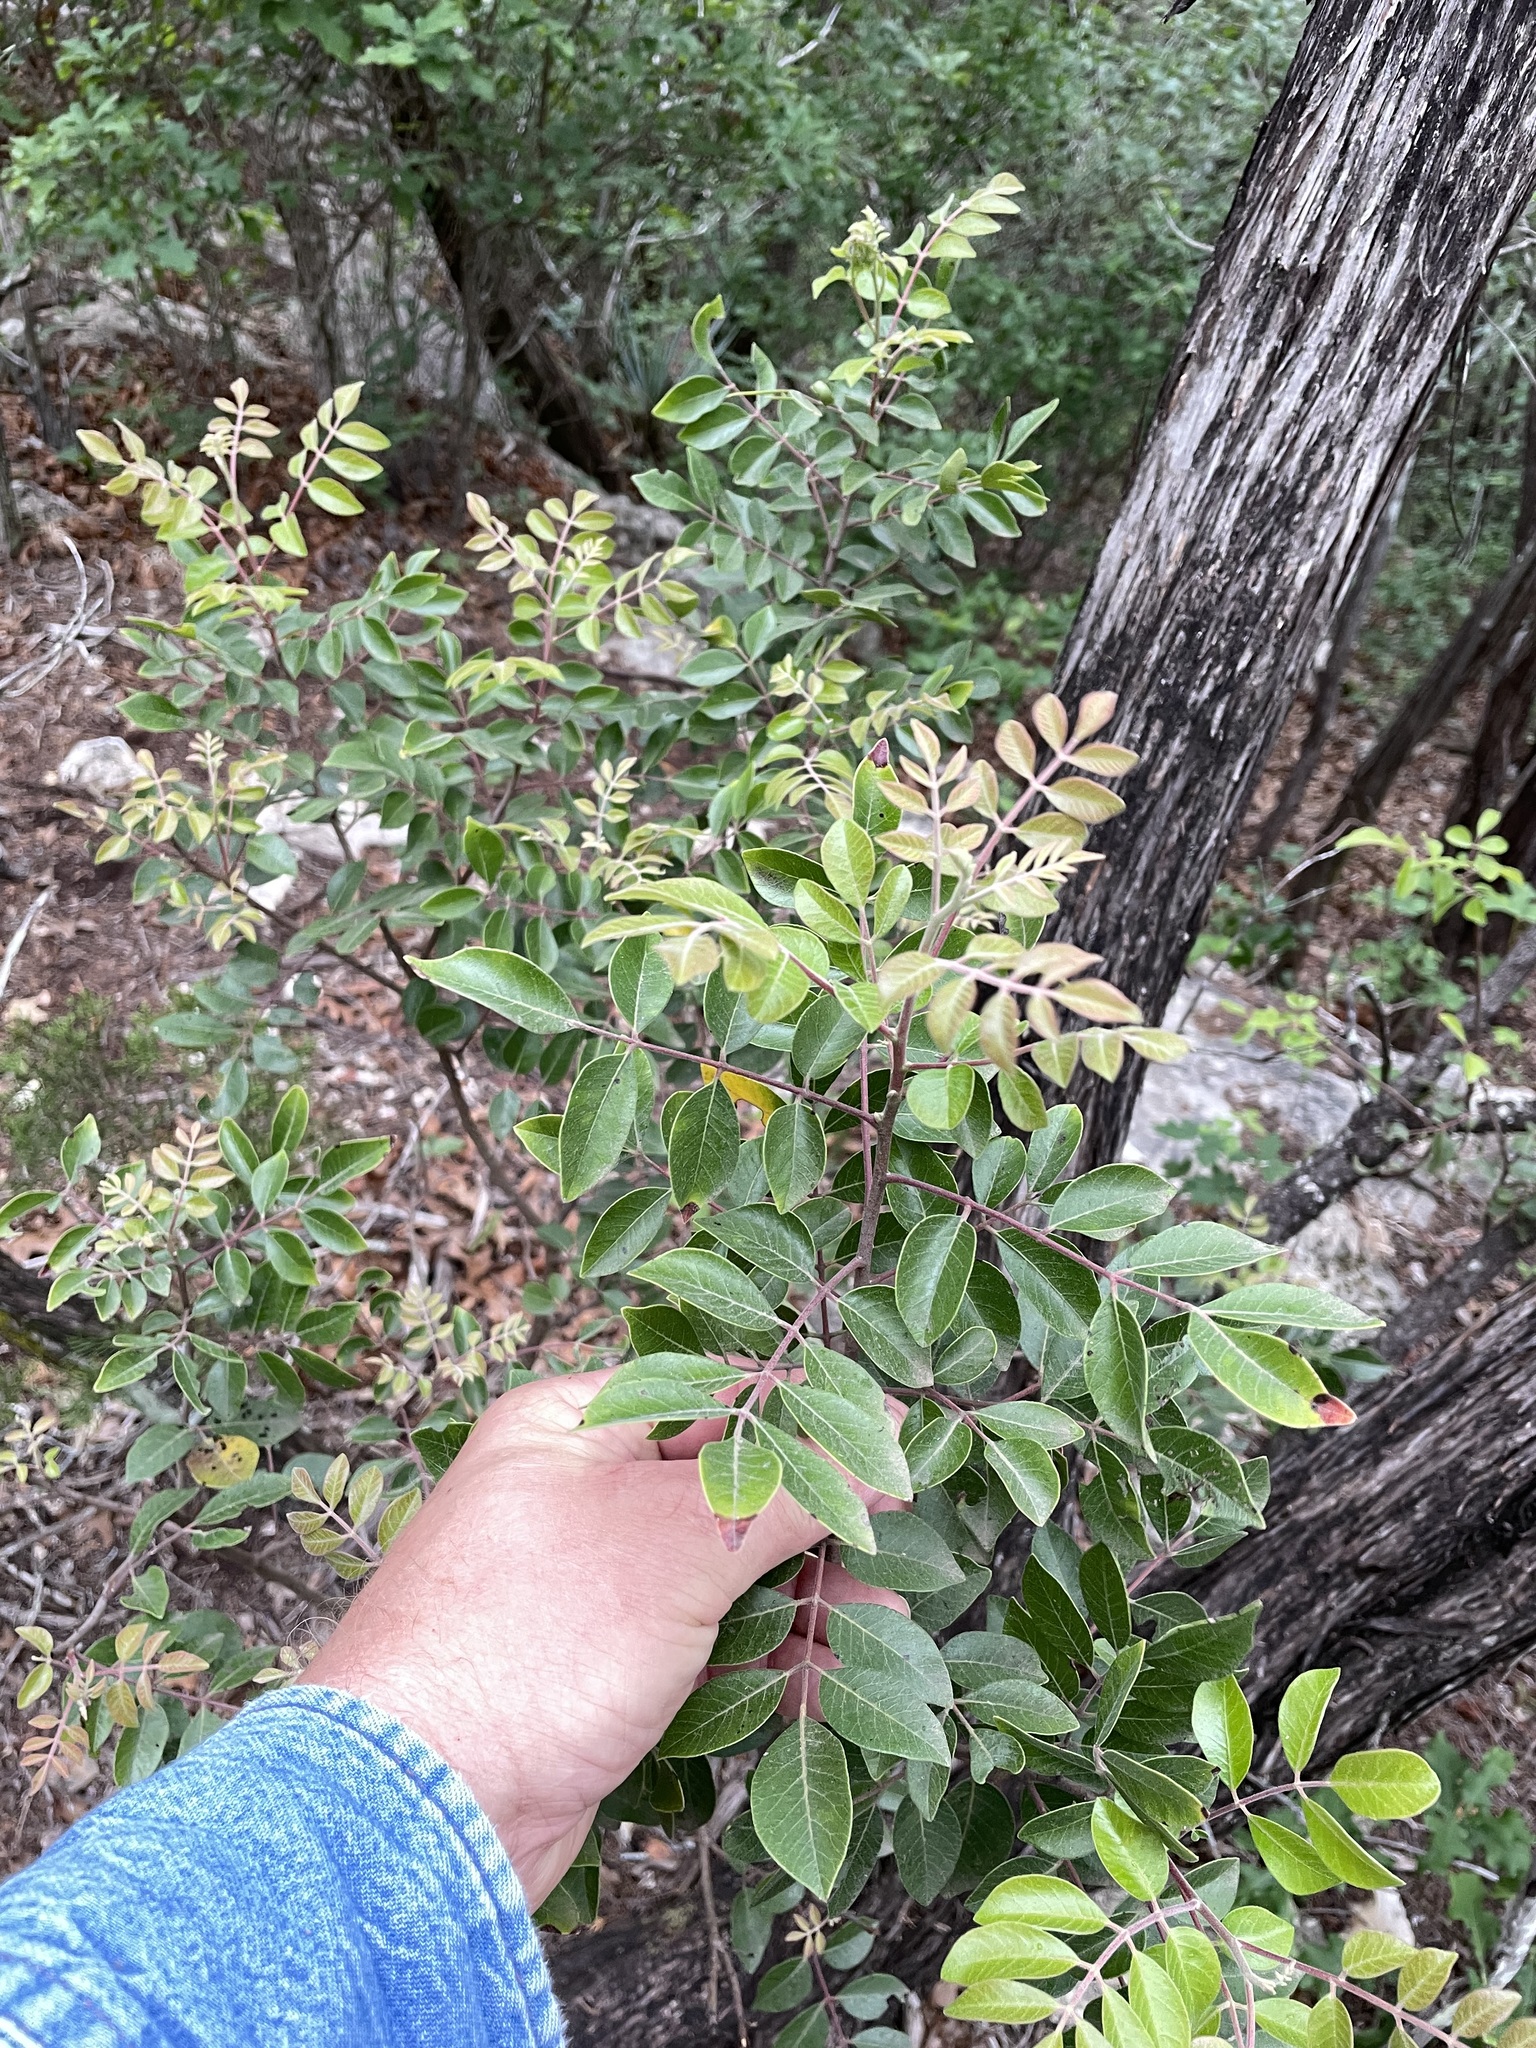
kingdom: Plantae
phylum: Tracheophyta
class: Magnoliopsida
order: Sapindales
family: Anacardiaceae
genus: Rhus
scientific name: Rhus virens
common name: Evergreen sumac
